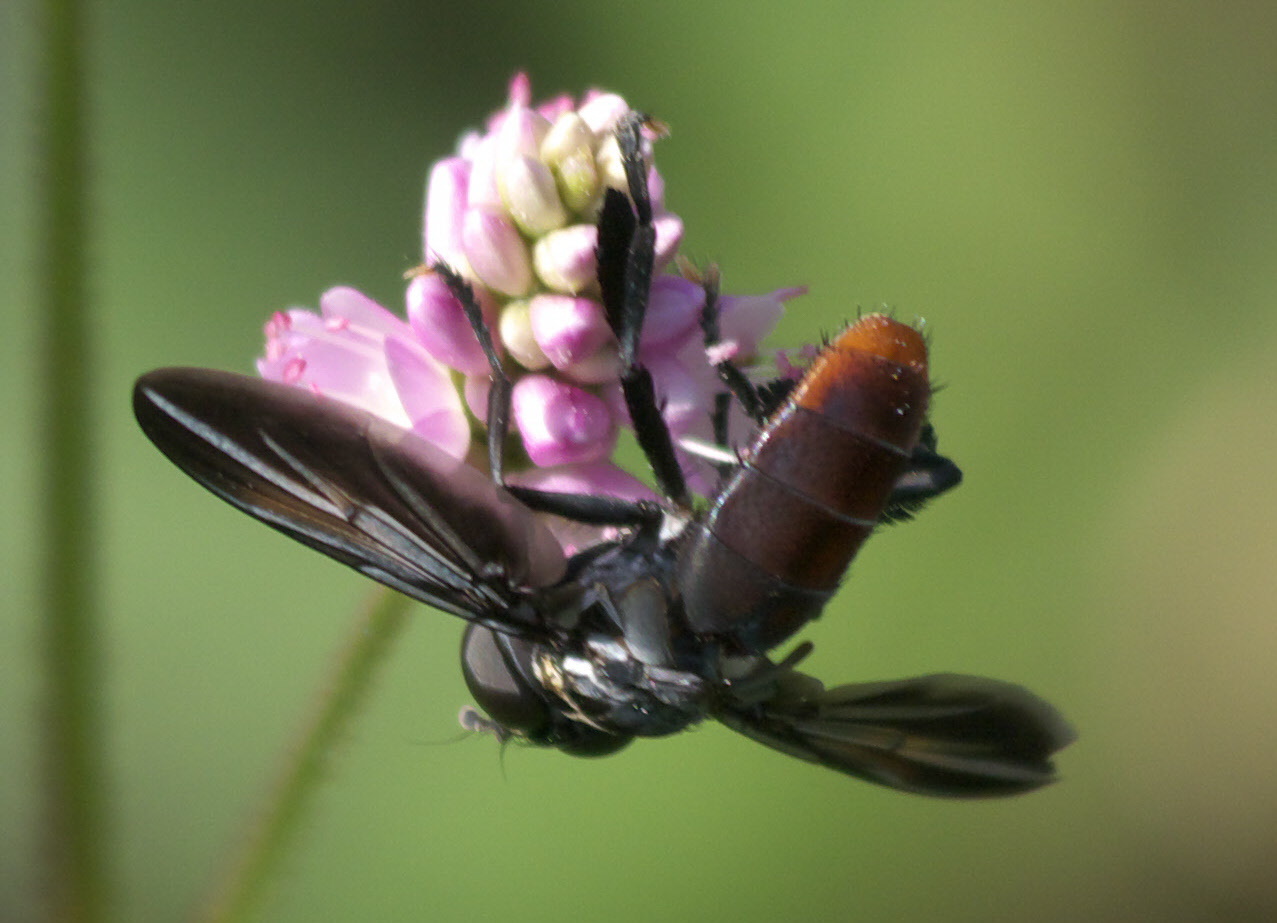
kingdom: Animalia
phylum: Arthropoda
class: Insecta
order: Diptera
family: Tachinidae
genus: Trichopoda
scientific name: Trichopoda lanipes
